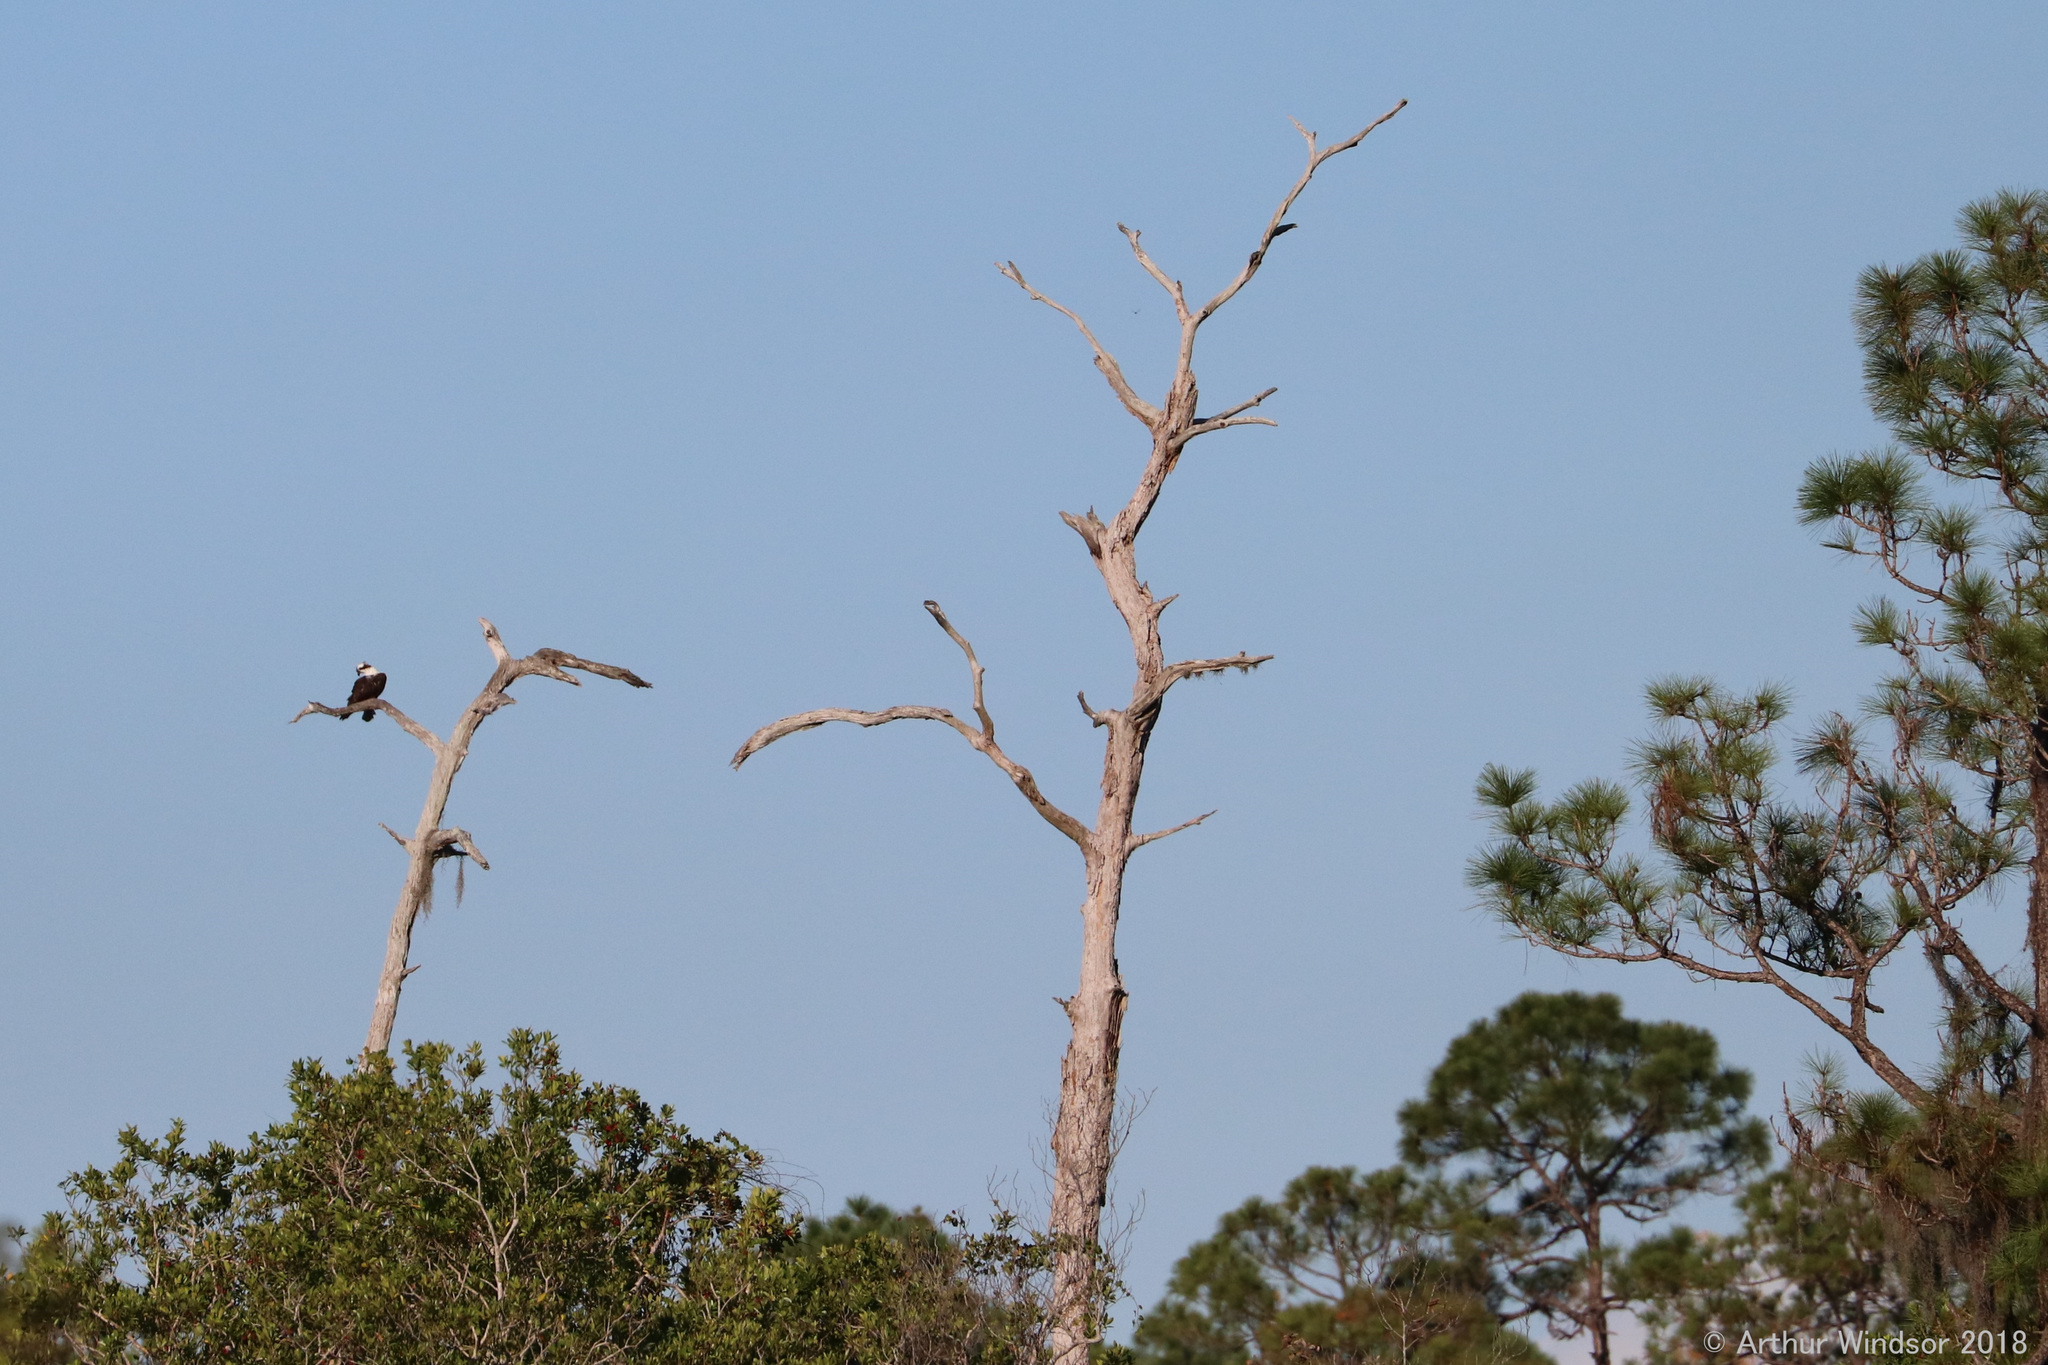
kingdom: Animalia
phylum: Chordata
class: Aves
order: Accipitriformes
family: Pandionidae
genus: Pandion
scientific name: Pandion haliaetus
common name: Osprey
